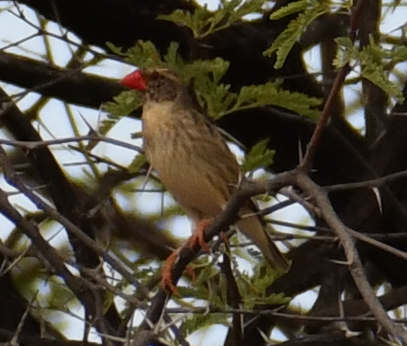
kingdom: Animalia
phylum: Chordata
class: Aves
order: Passeriformes
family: Ploceidae
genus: Quelea
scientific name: Quelea quelea
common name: Red-billed quelea
